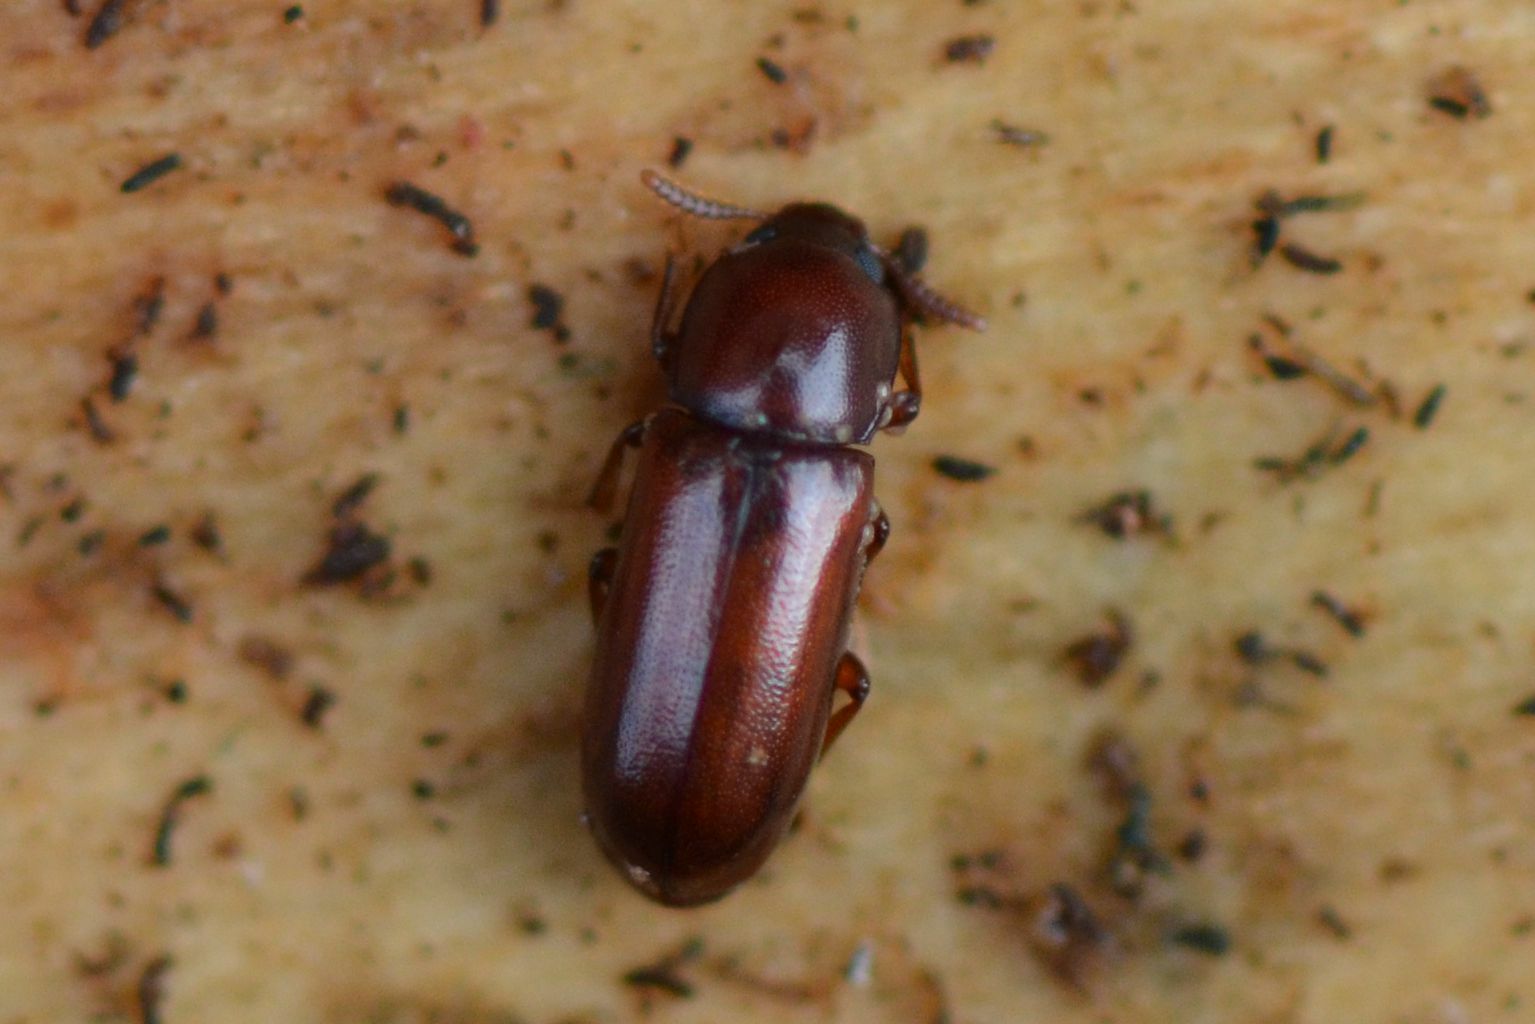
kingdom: Animalia
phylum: Arthropoda
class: Insecta
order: Coleoptera
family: Tenebrionidae
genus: Corticeus
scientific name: Corticeus fraxini
